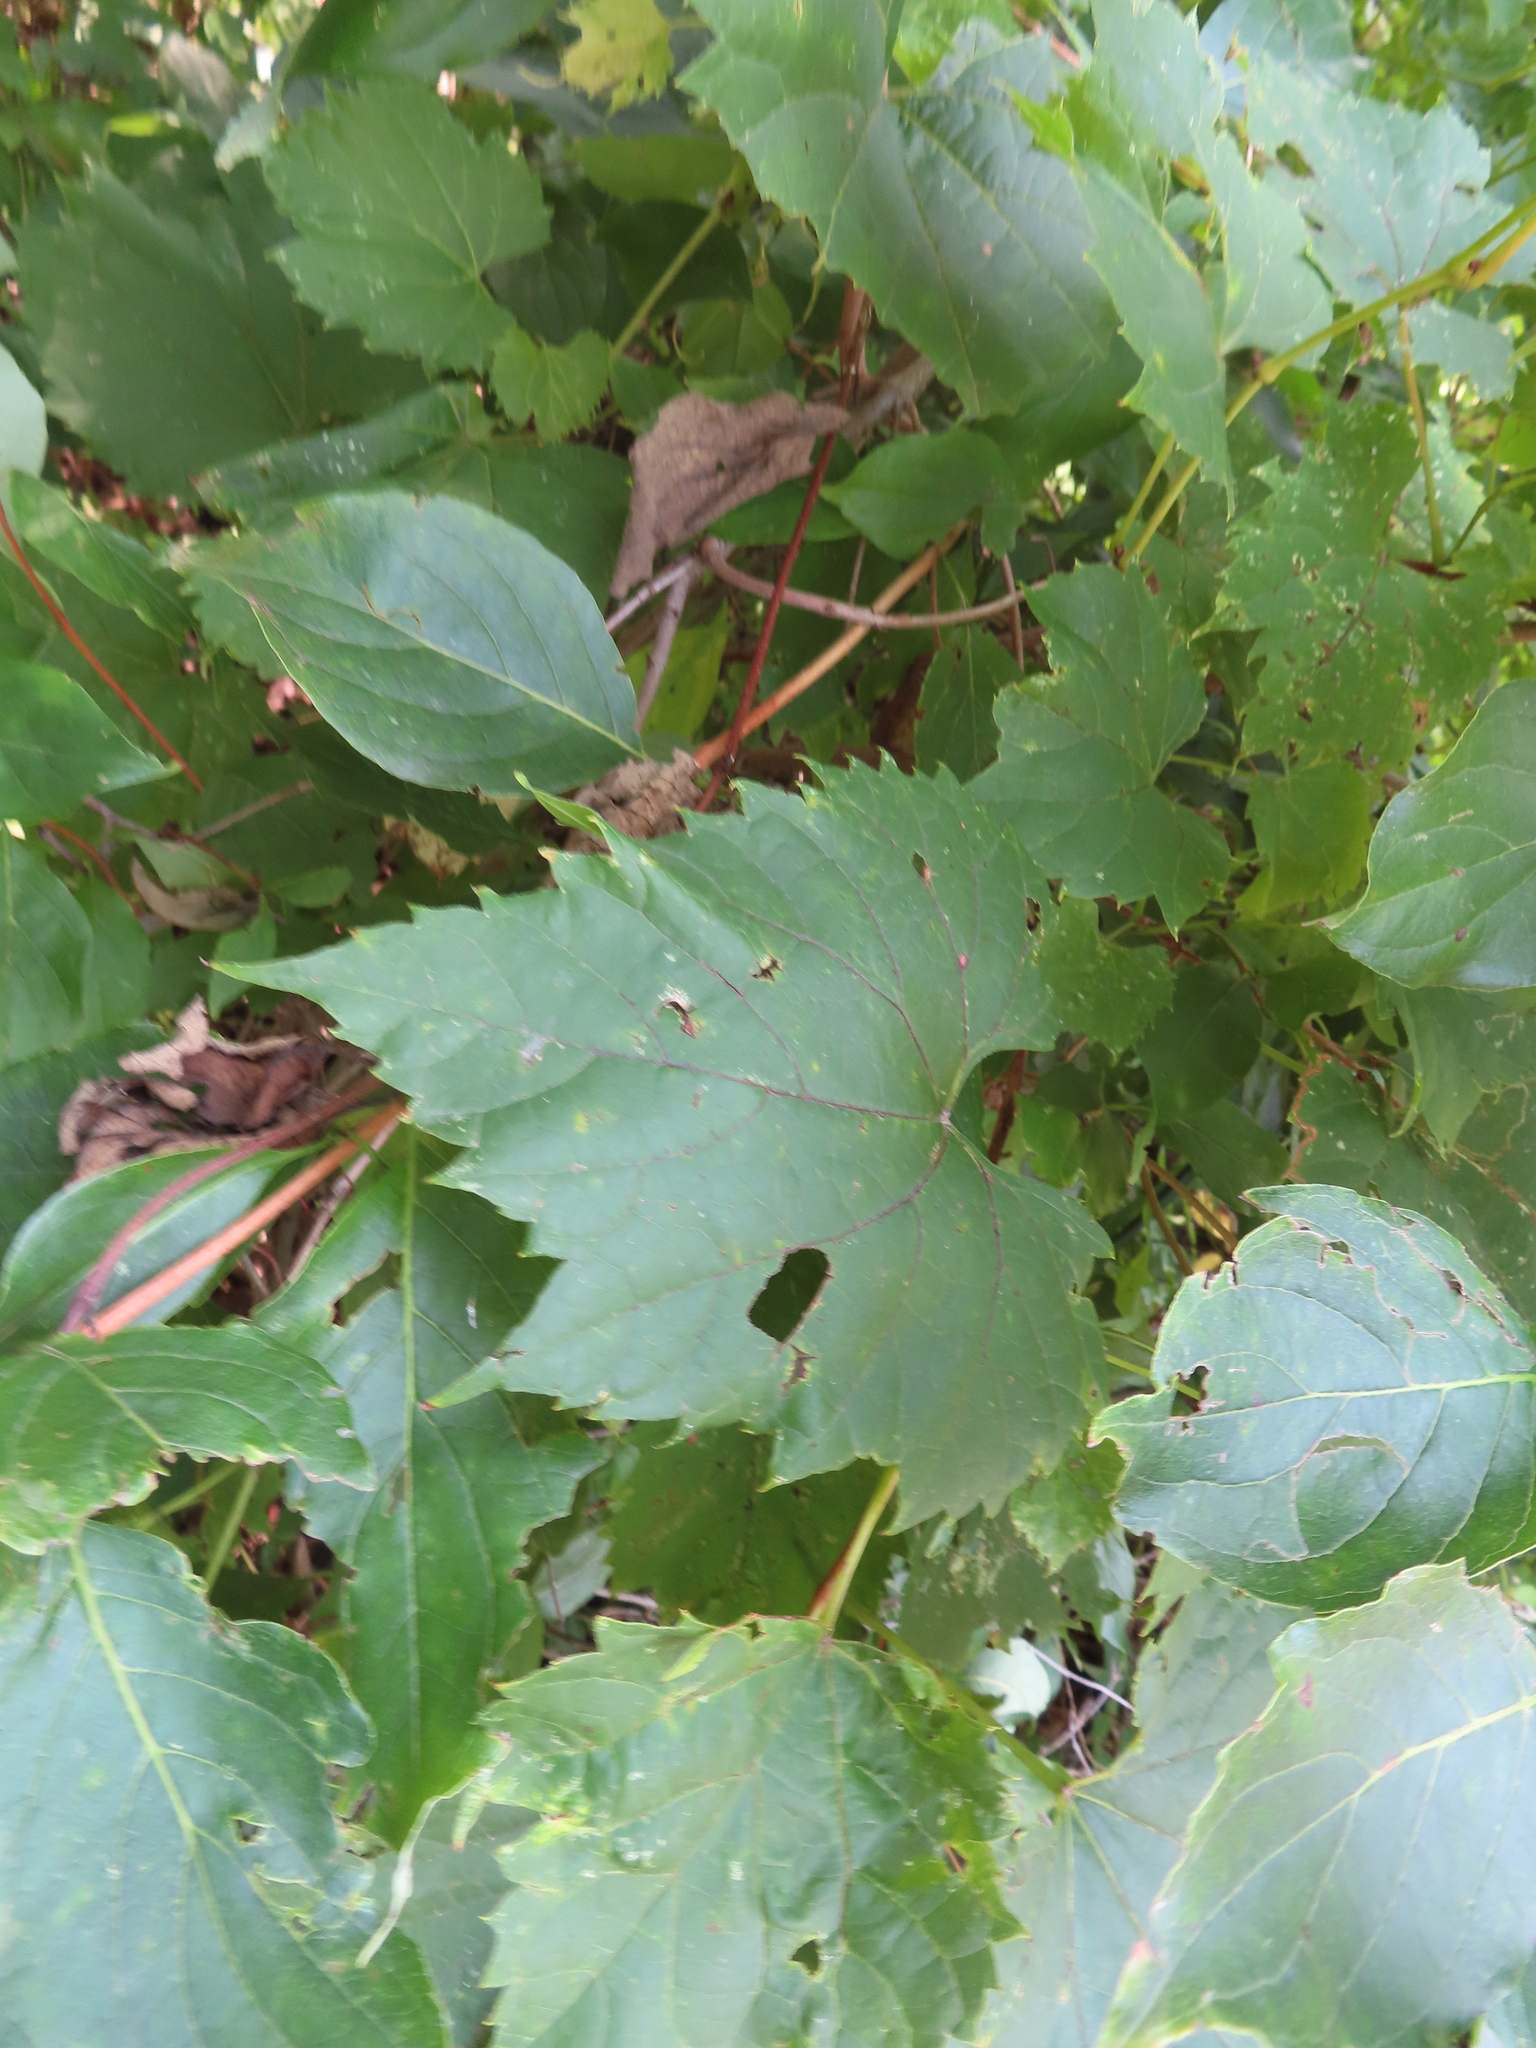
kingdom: Plantae
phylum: Tracheophyta
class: Magnoliopsida
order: Vitales
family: Vitaceae
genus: Vitis
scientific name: Vitis riparia
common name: Frost grape
